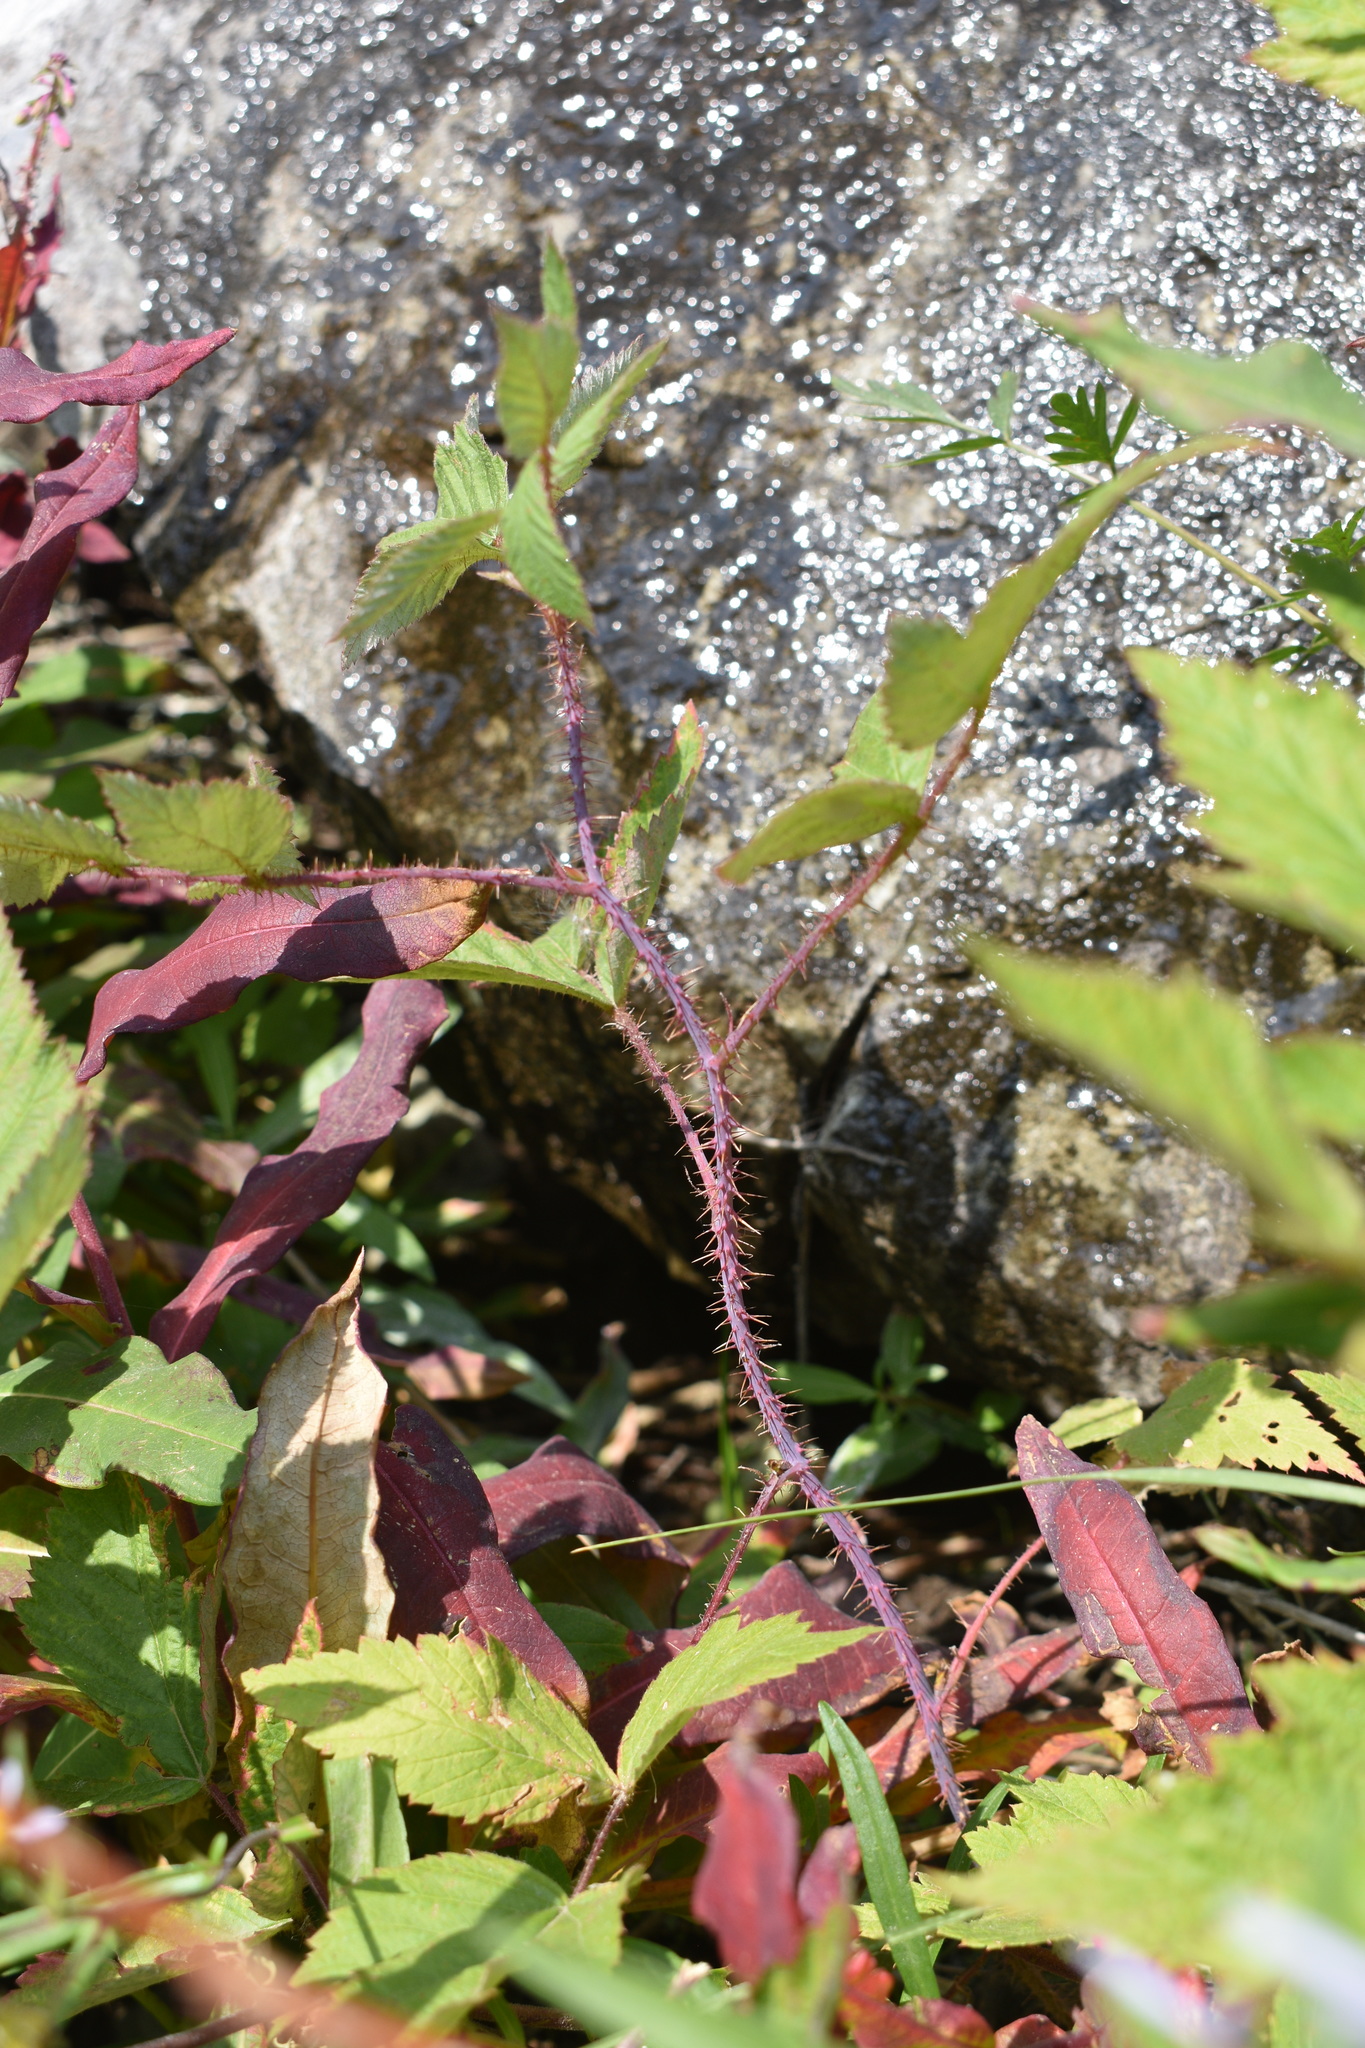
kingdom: Plantae
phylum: Tracheophyta
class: Magnoliopsida
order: Rosales
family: Rosaceae
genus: Rubus
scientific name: Rubus idaeus
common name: Raspberry
